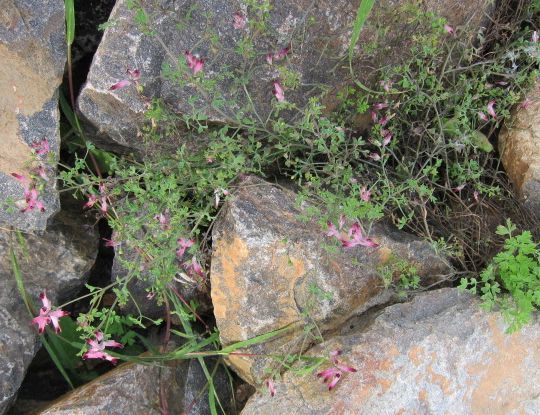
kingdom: Plantae
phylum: Tracheophyta
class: Magnoliopsida
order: Ranunculales
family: Papaveraceae
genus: Fumaria
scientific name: Fumaria muralis
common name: Common ramping-fumitory
